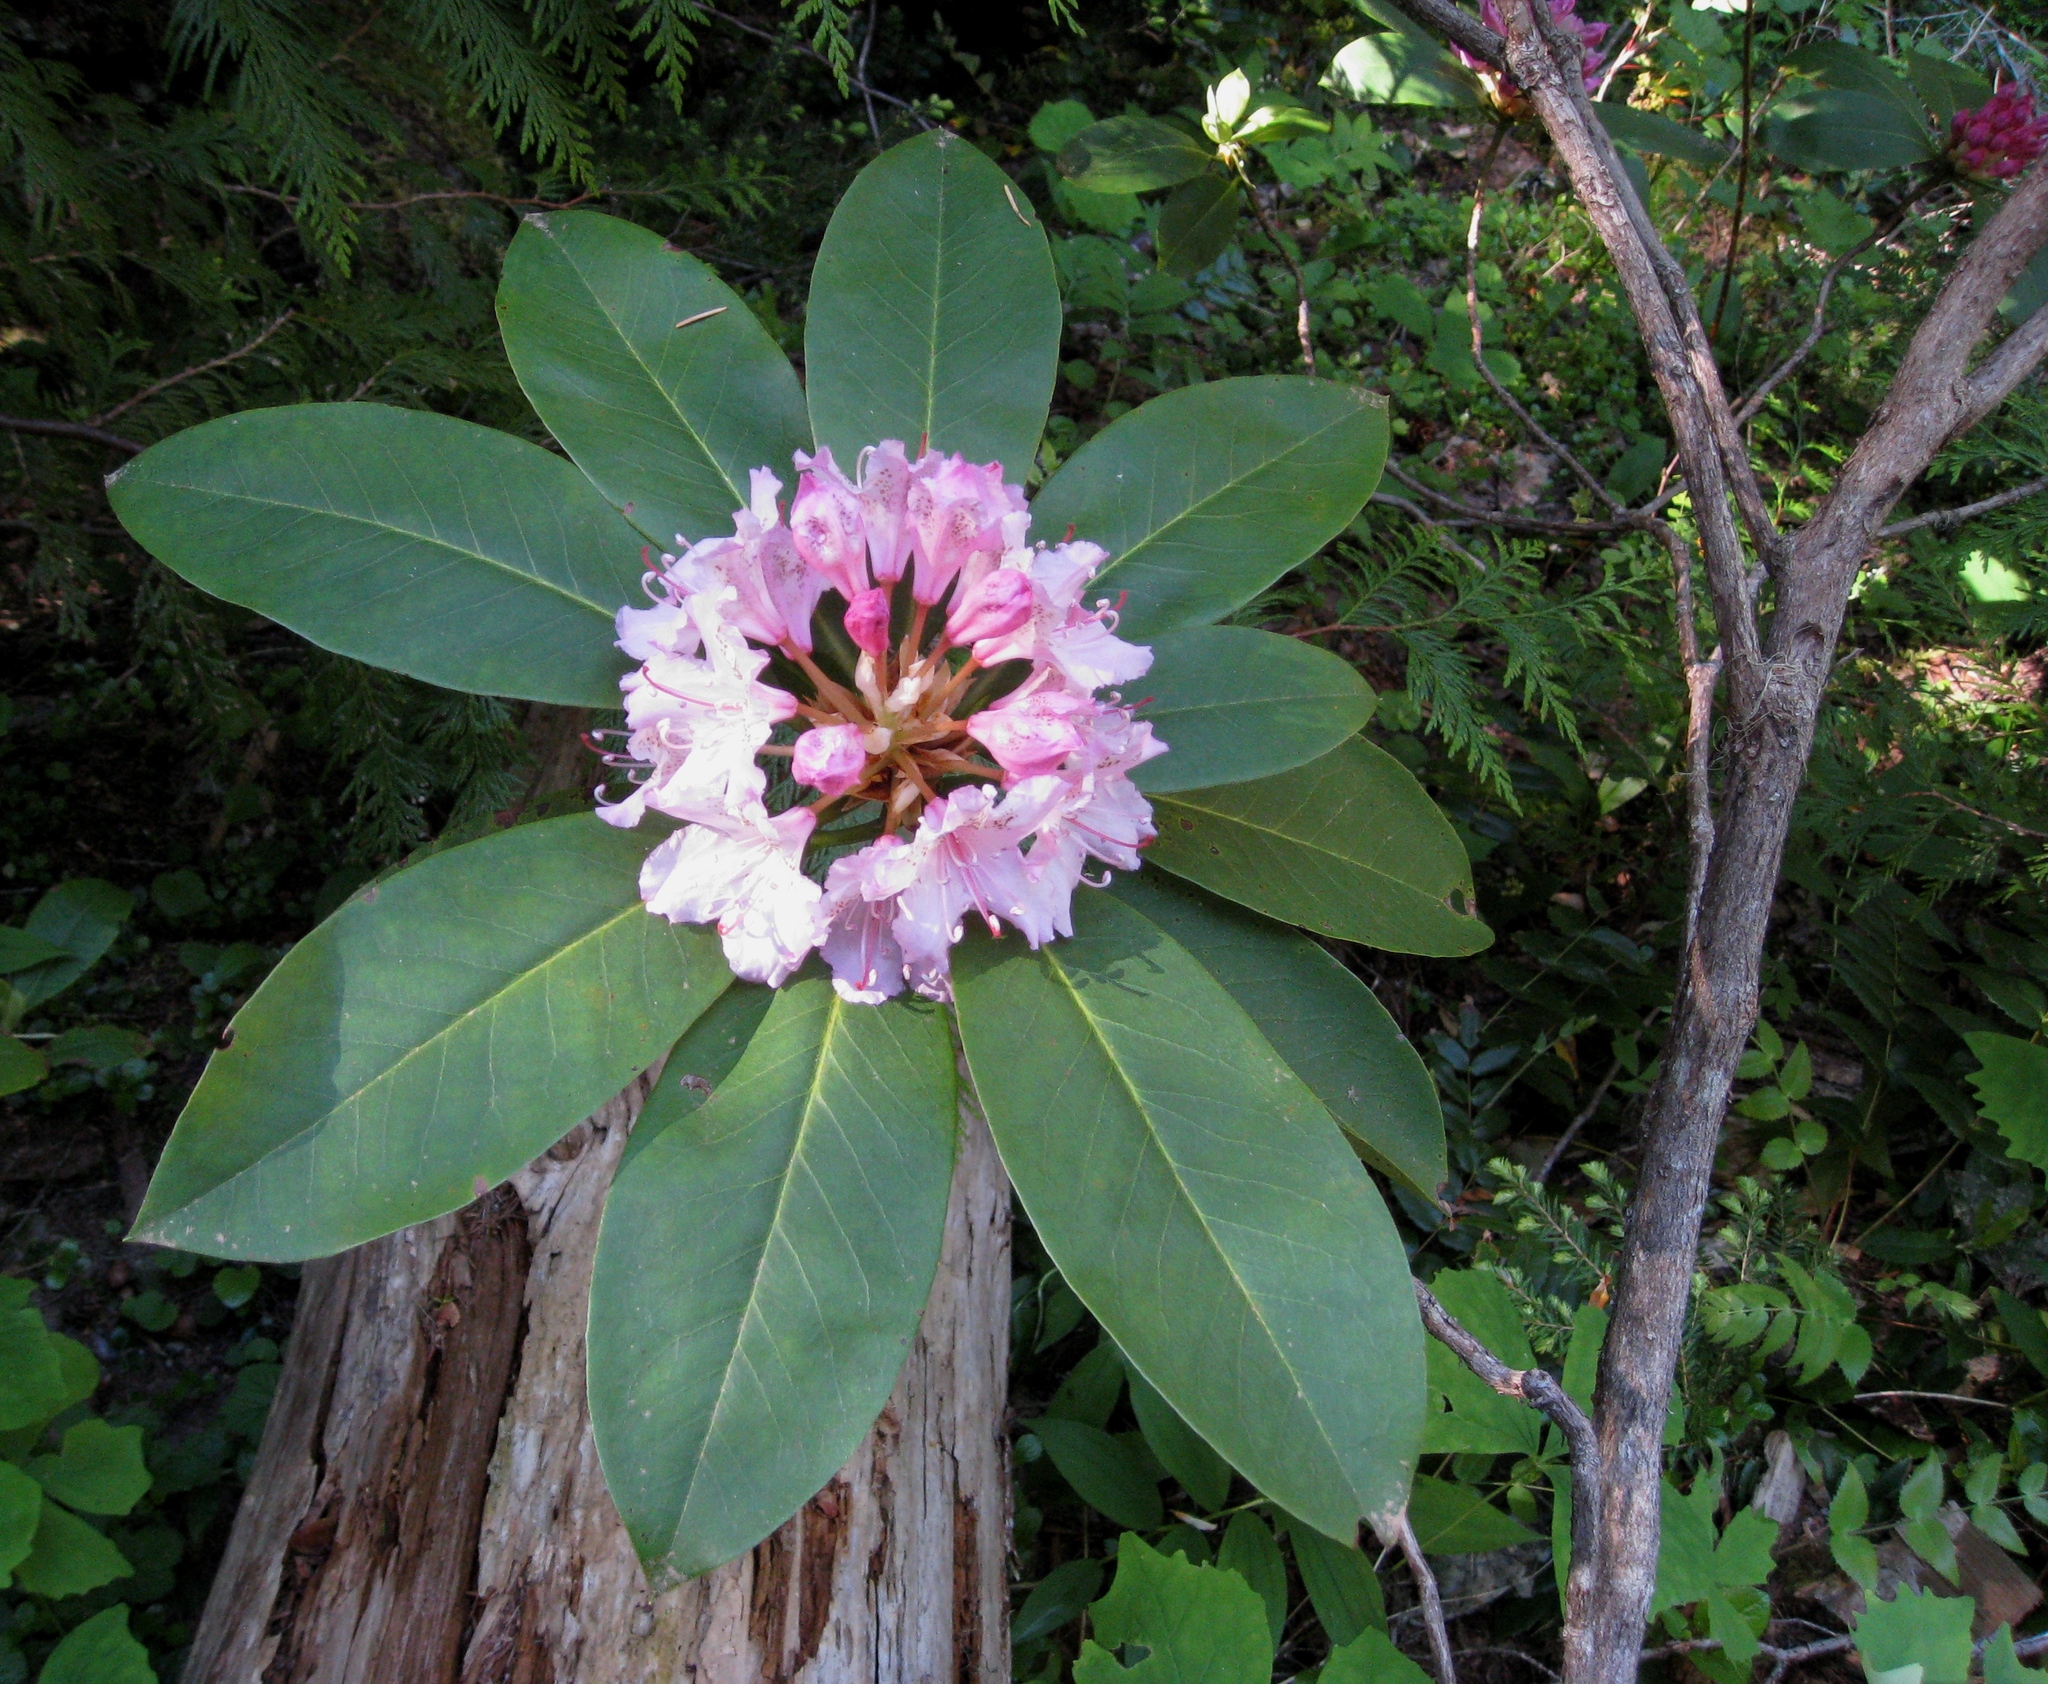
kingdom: Plantae
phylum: Tracheophyta
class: Magnoliopsida
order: Ericales
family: Ericaceae
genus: Rhododendron
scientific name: Rhododendron macrophyllum
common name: California rose bay
